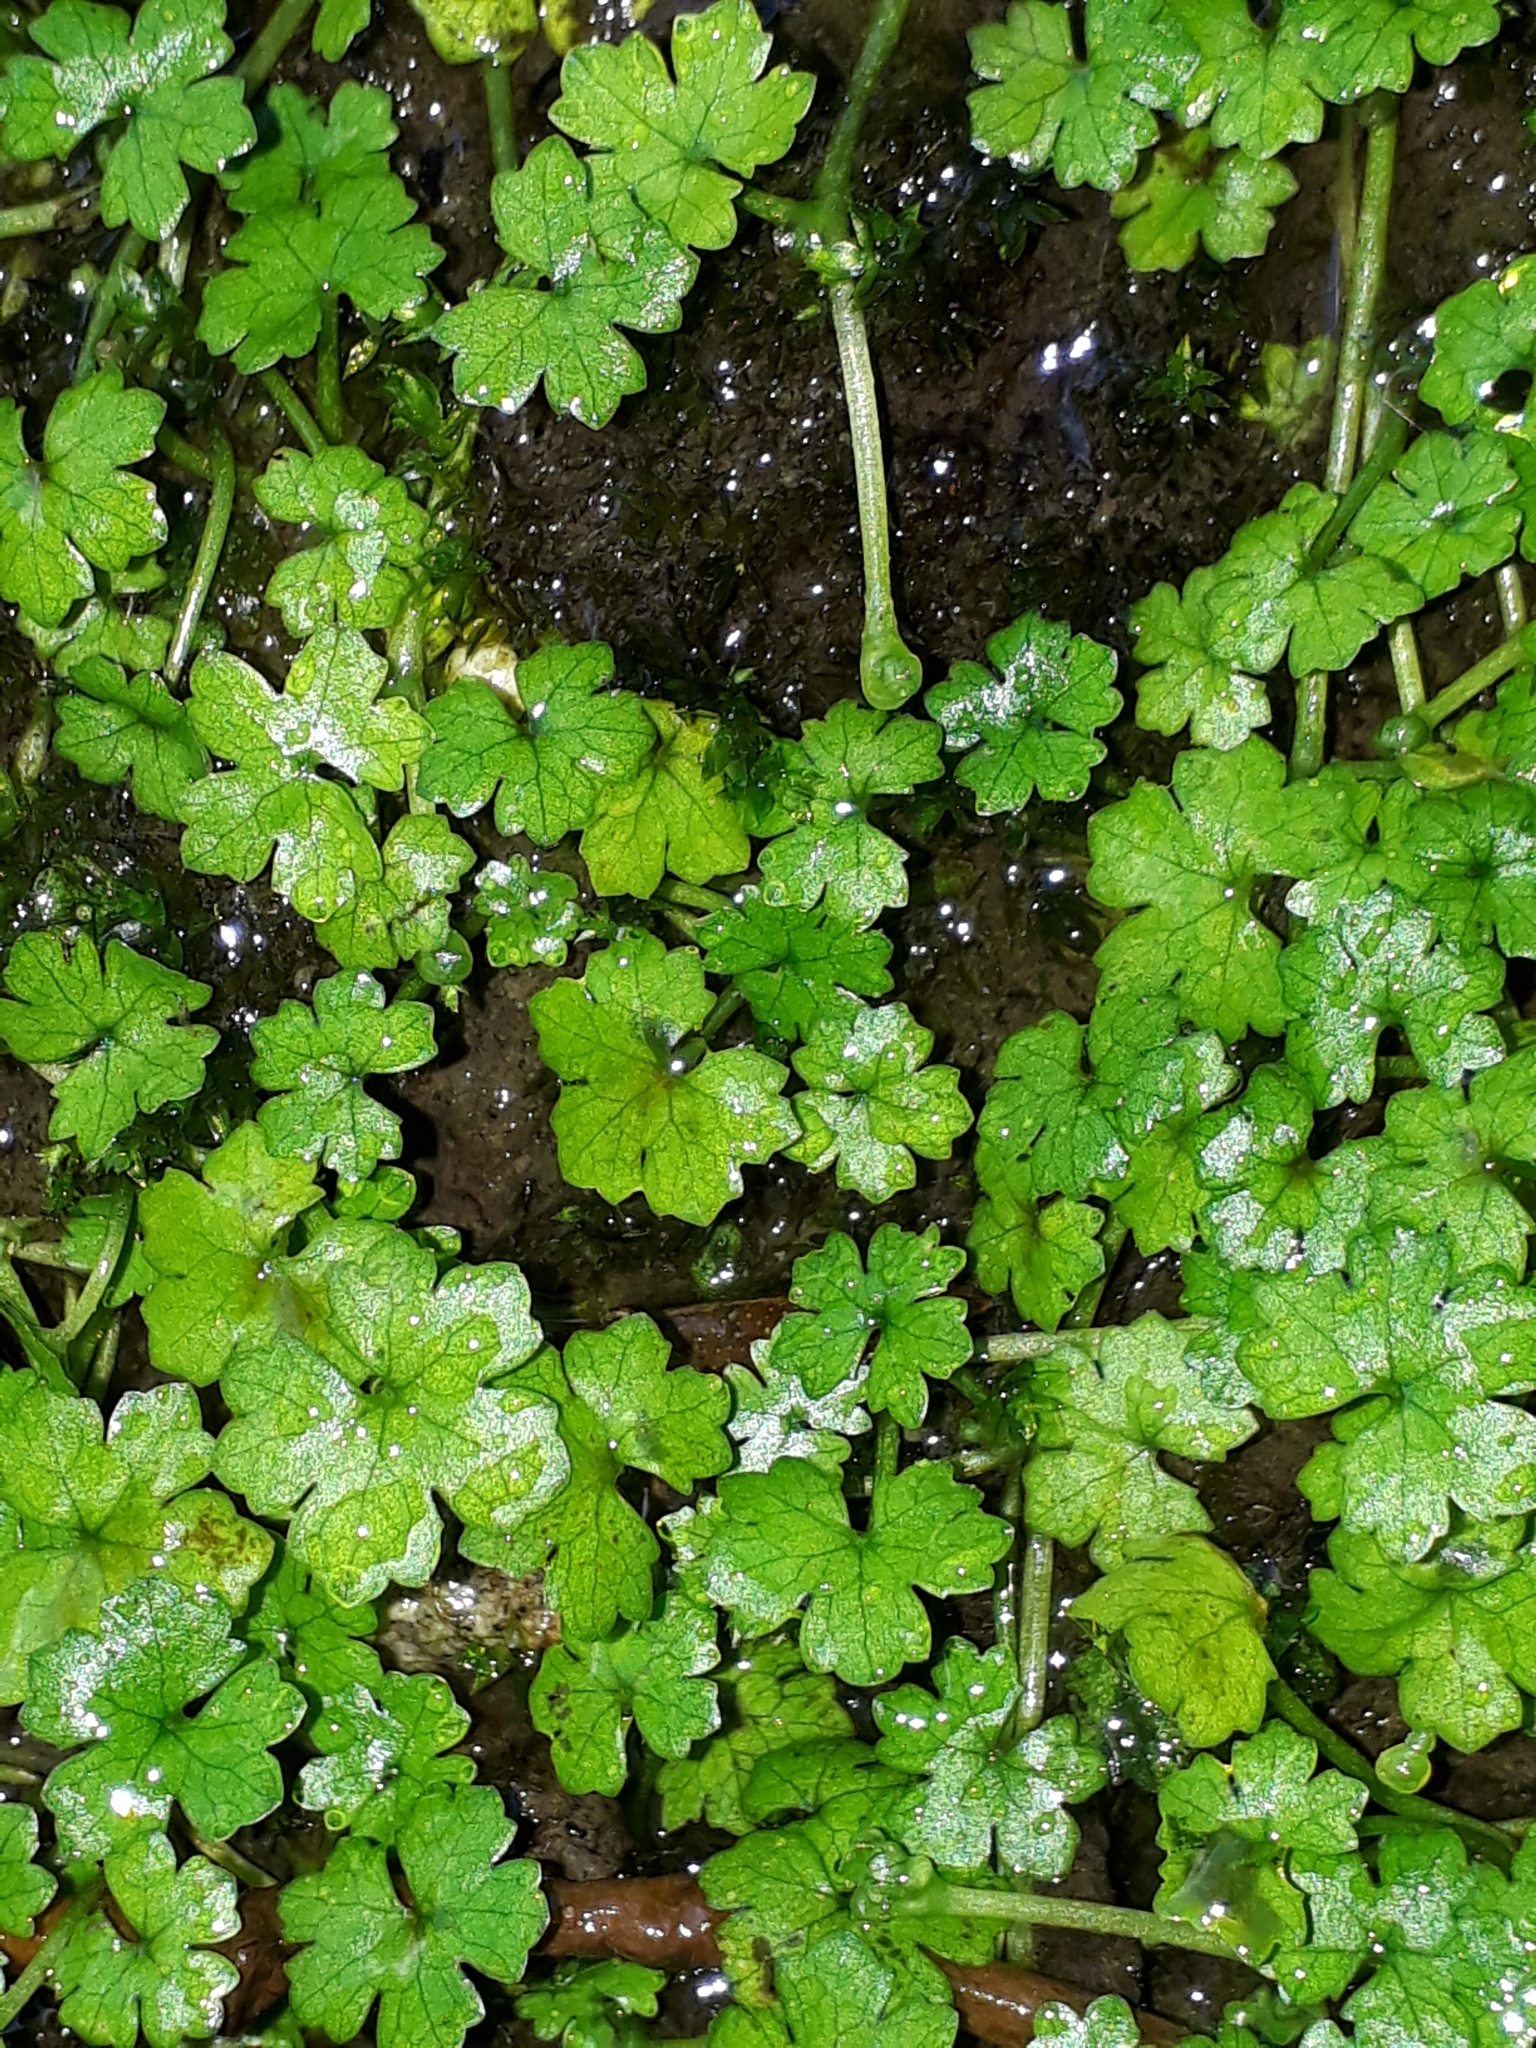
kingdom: Plantae
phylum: Tracheophyta
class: Magnoliopsida
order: Apiales
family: Araliaceae
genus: Hydrocotyle
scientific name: Hydrocotyle heteromeria
